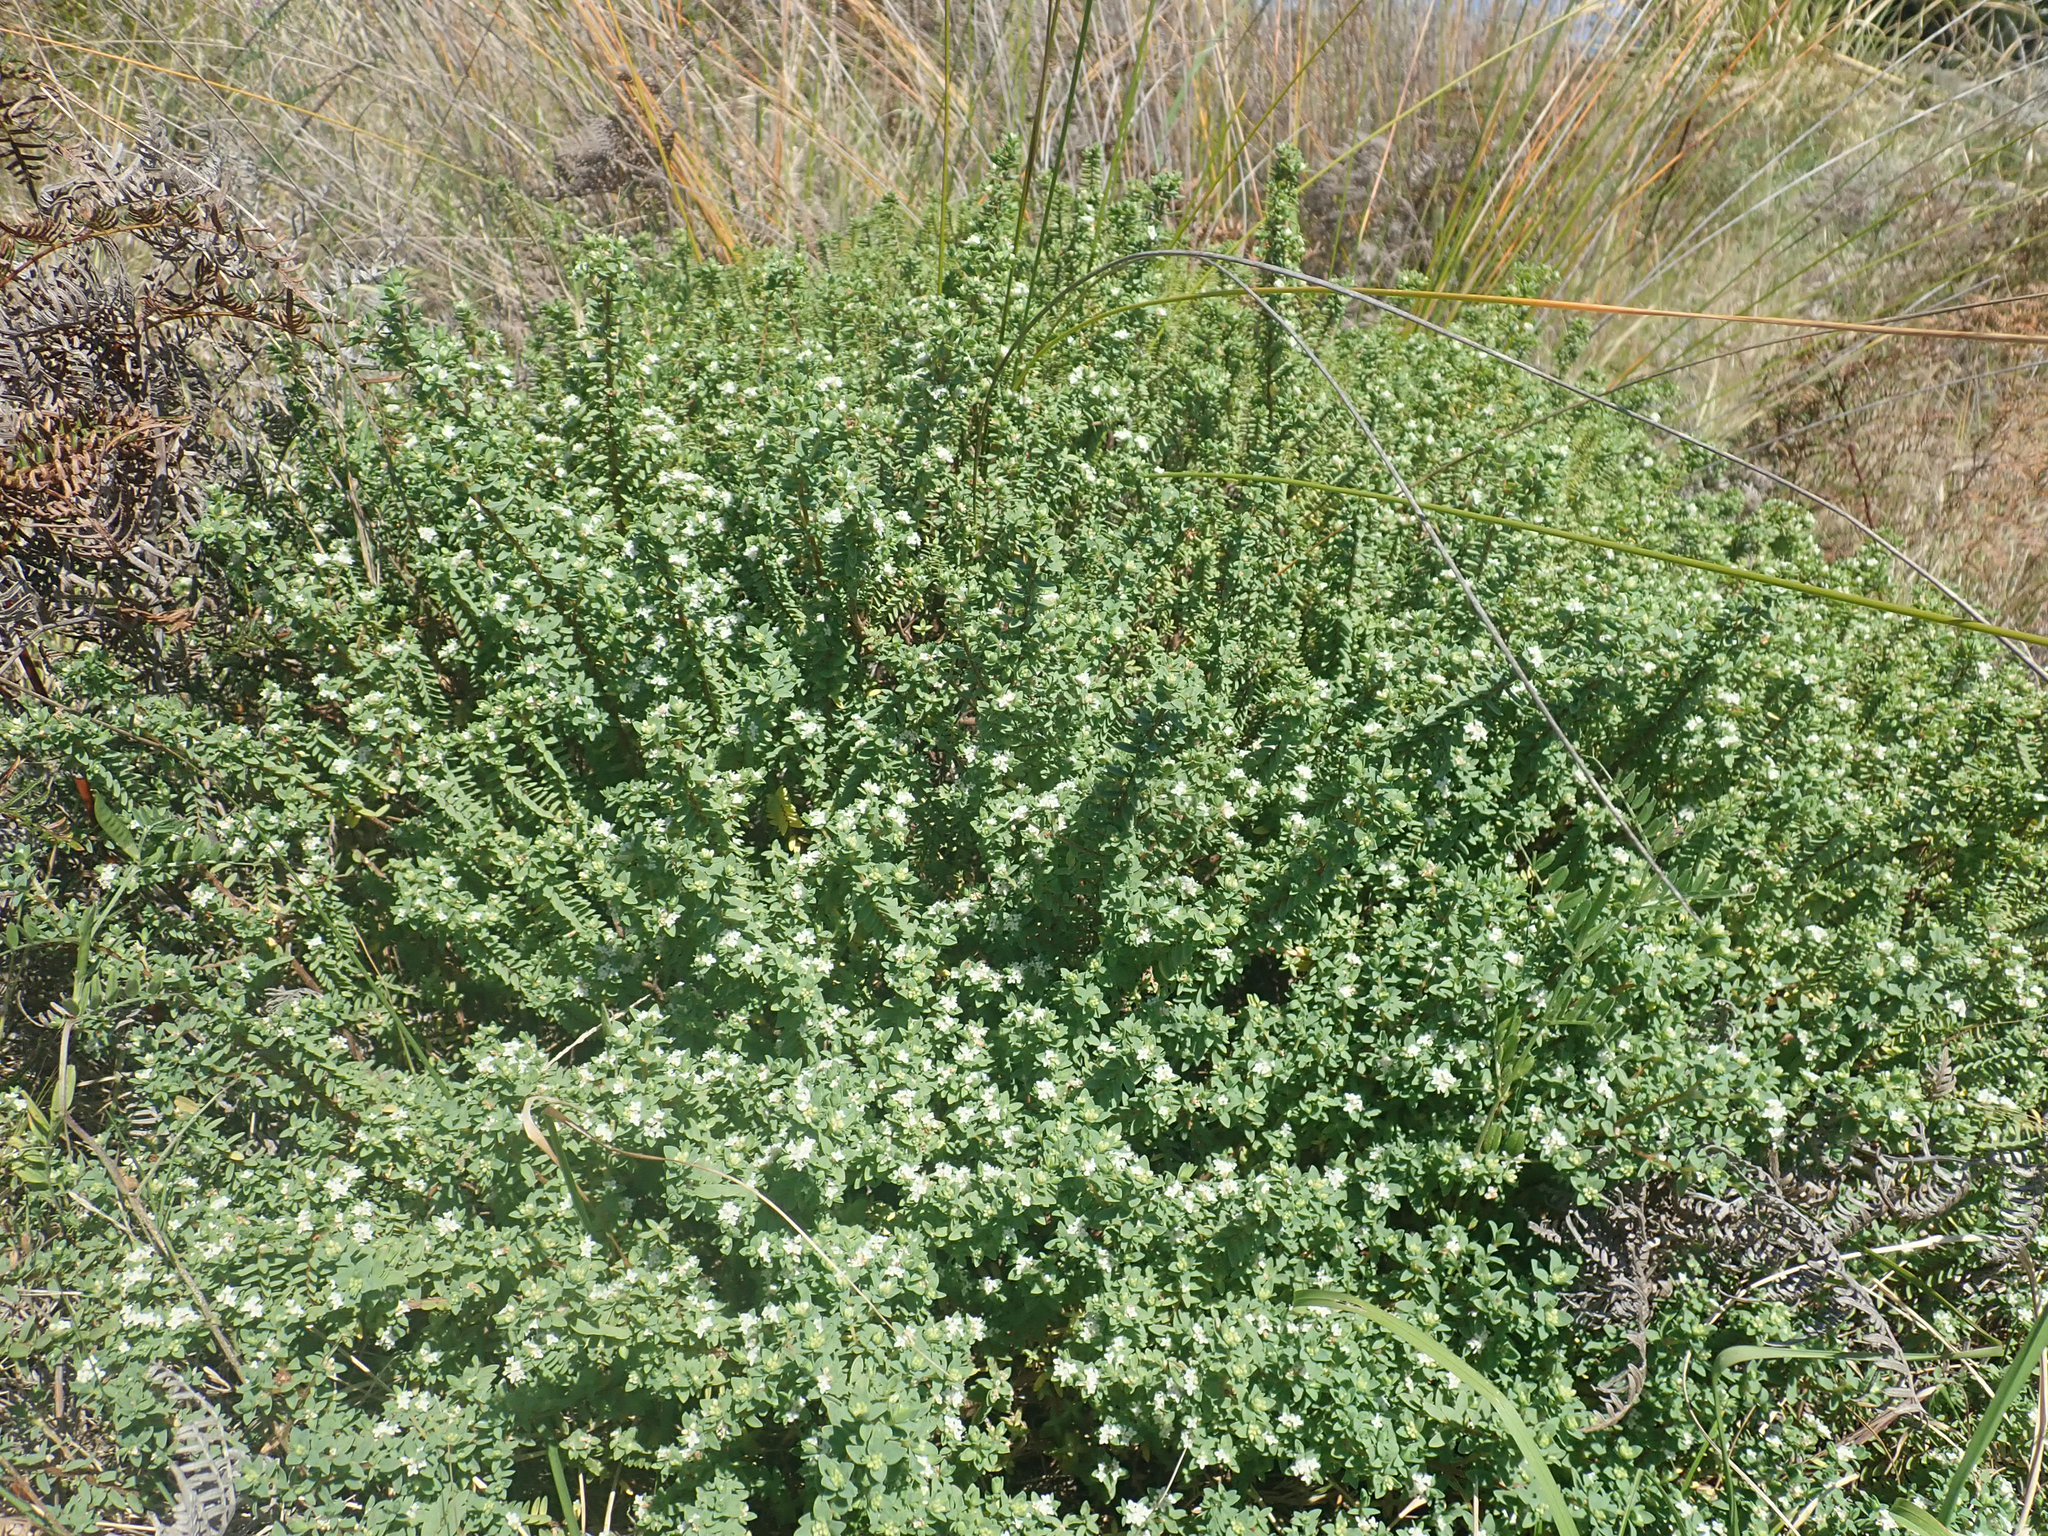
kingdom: Plantae
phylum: Tracheophyta
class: Magnoliopsida
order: Malvales
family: Thymelaeaceae
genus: Pimelea
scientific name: Pimelea orthia
